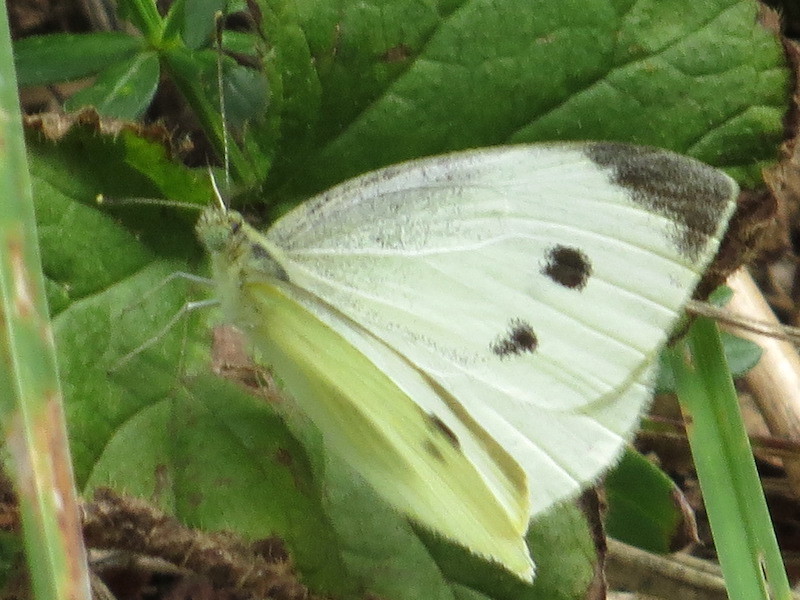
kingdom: Animalia
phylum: Arthropoda
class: Insecta
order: Lepidoptera
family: Pieridae
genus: Pieris
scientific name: Pieris rapae
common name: Small white
